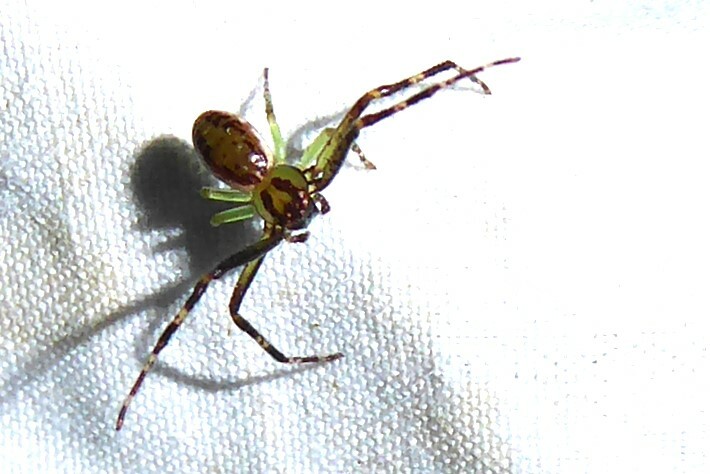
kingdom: Animalia
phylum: Arthropoda
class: Arachnida
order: Araneae
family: Thomisidae
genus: Diaea
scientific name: Diaea ambara
